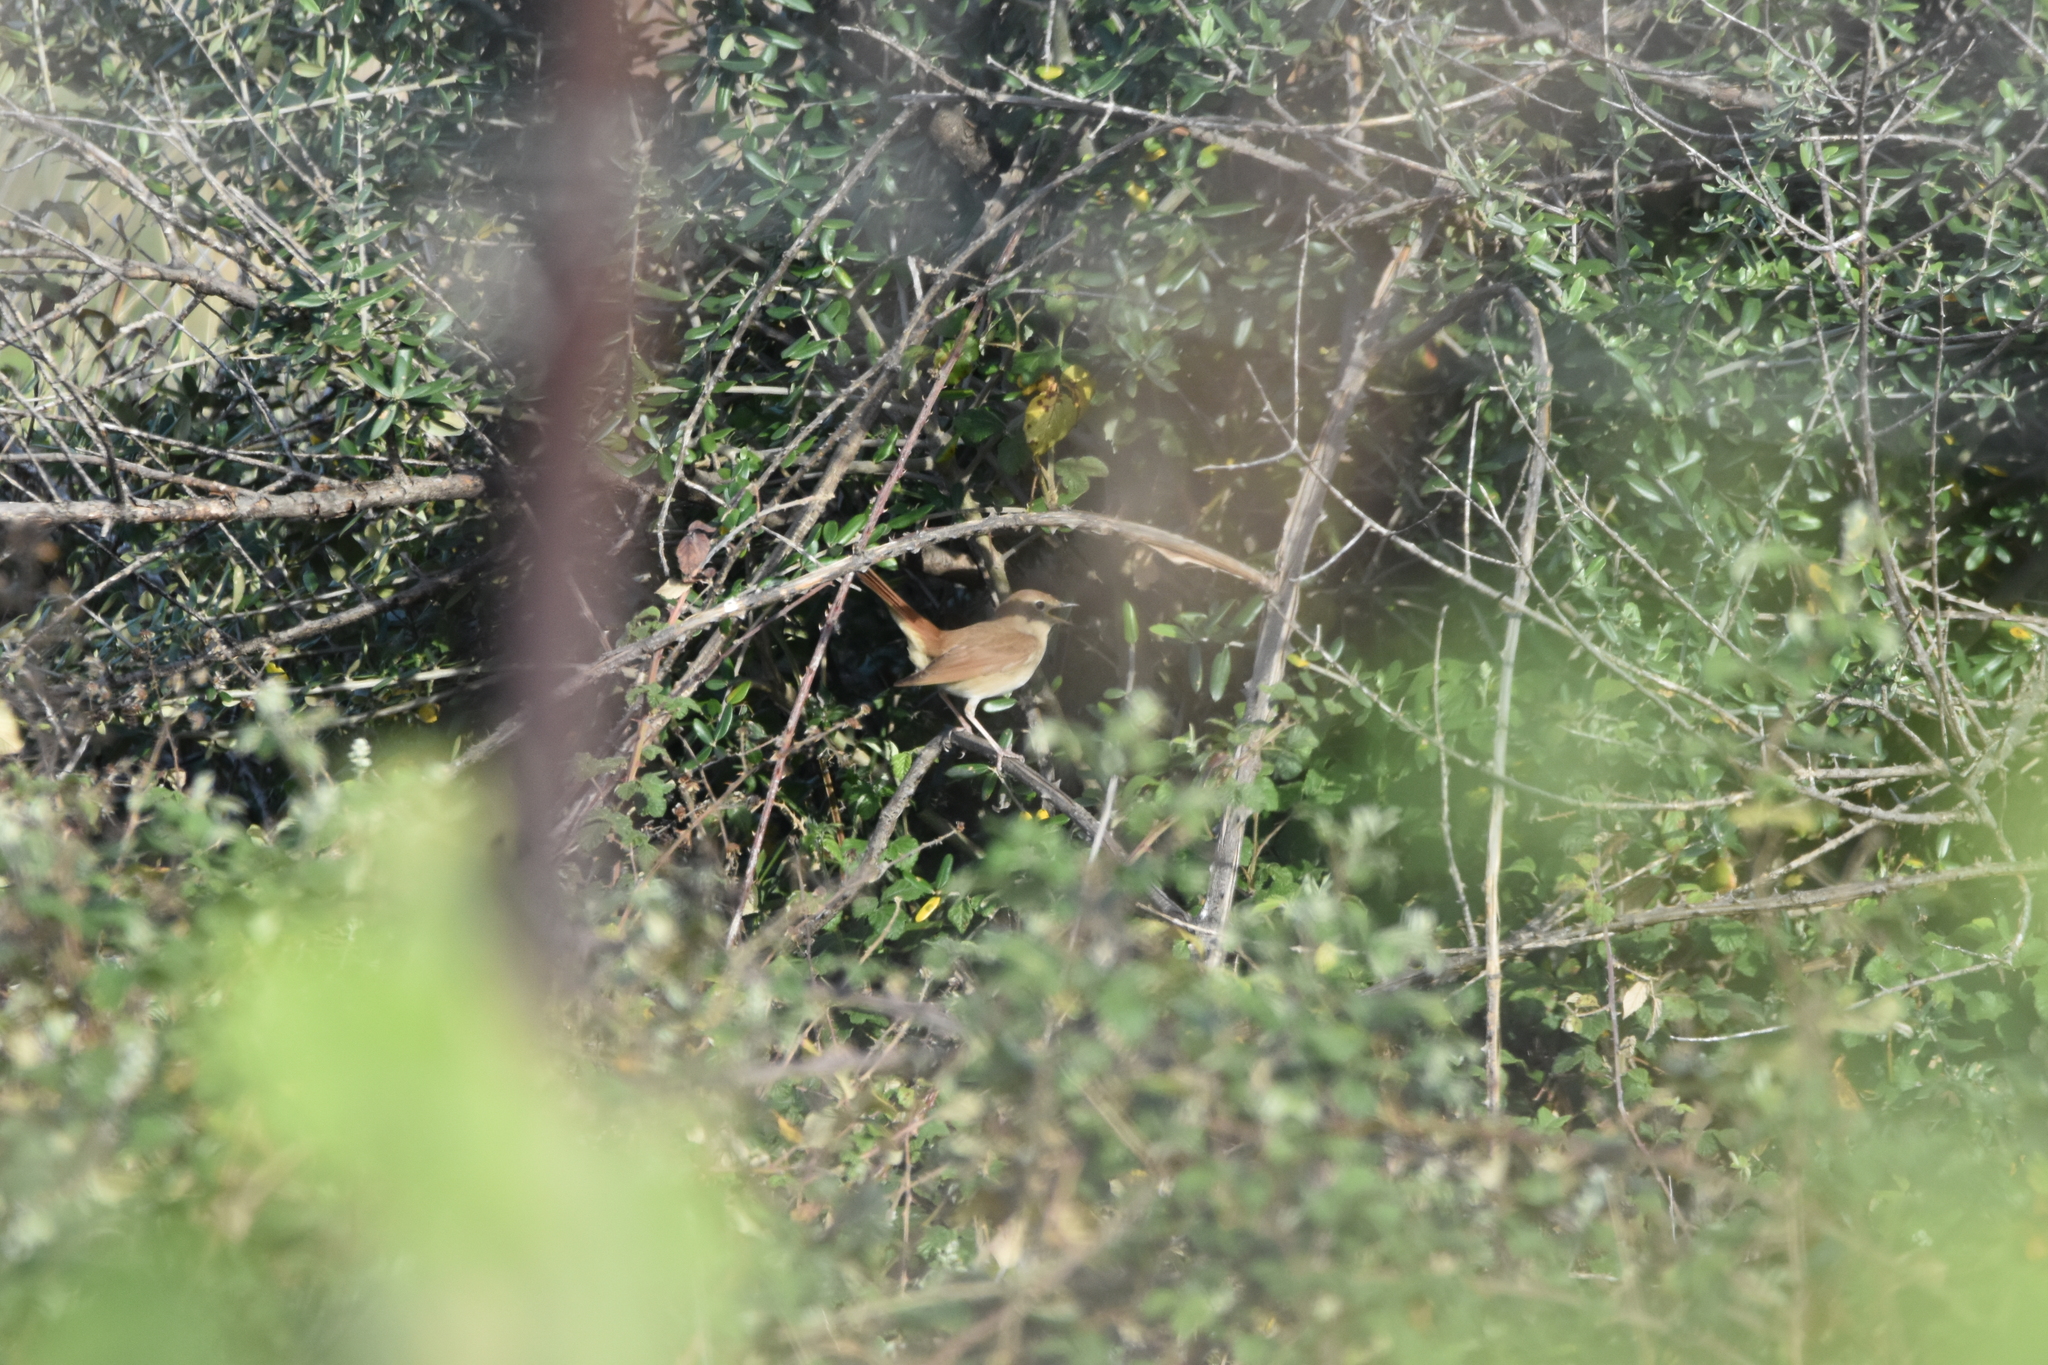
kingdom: Animalia
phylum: Chordata
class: Aves
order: Passeriformes
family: Muscicapidae
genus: Luscinia
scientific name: Luscinia megarhynchos
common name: Common nightingale
